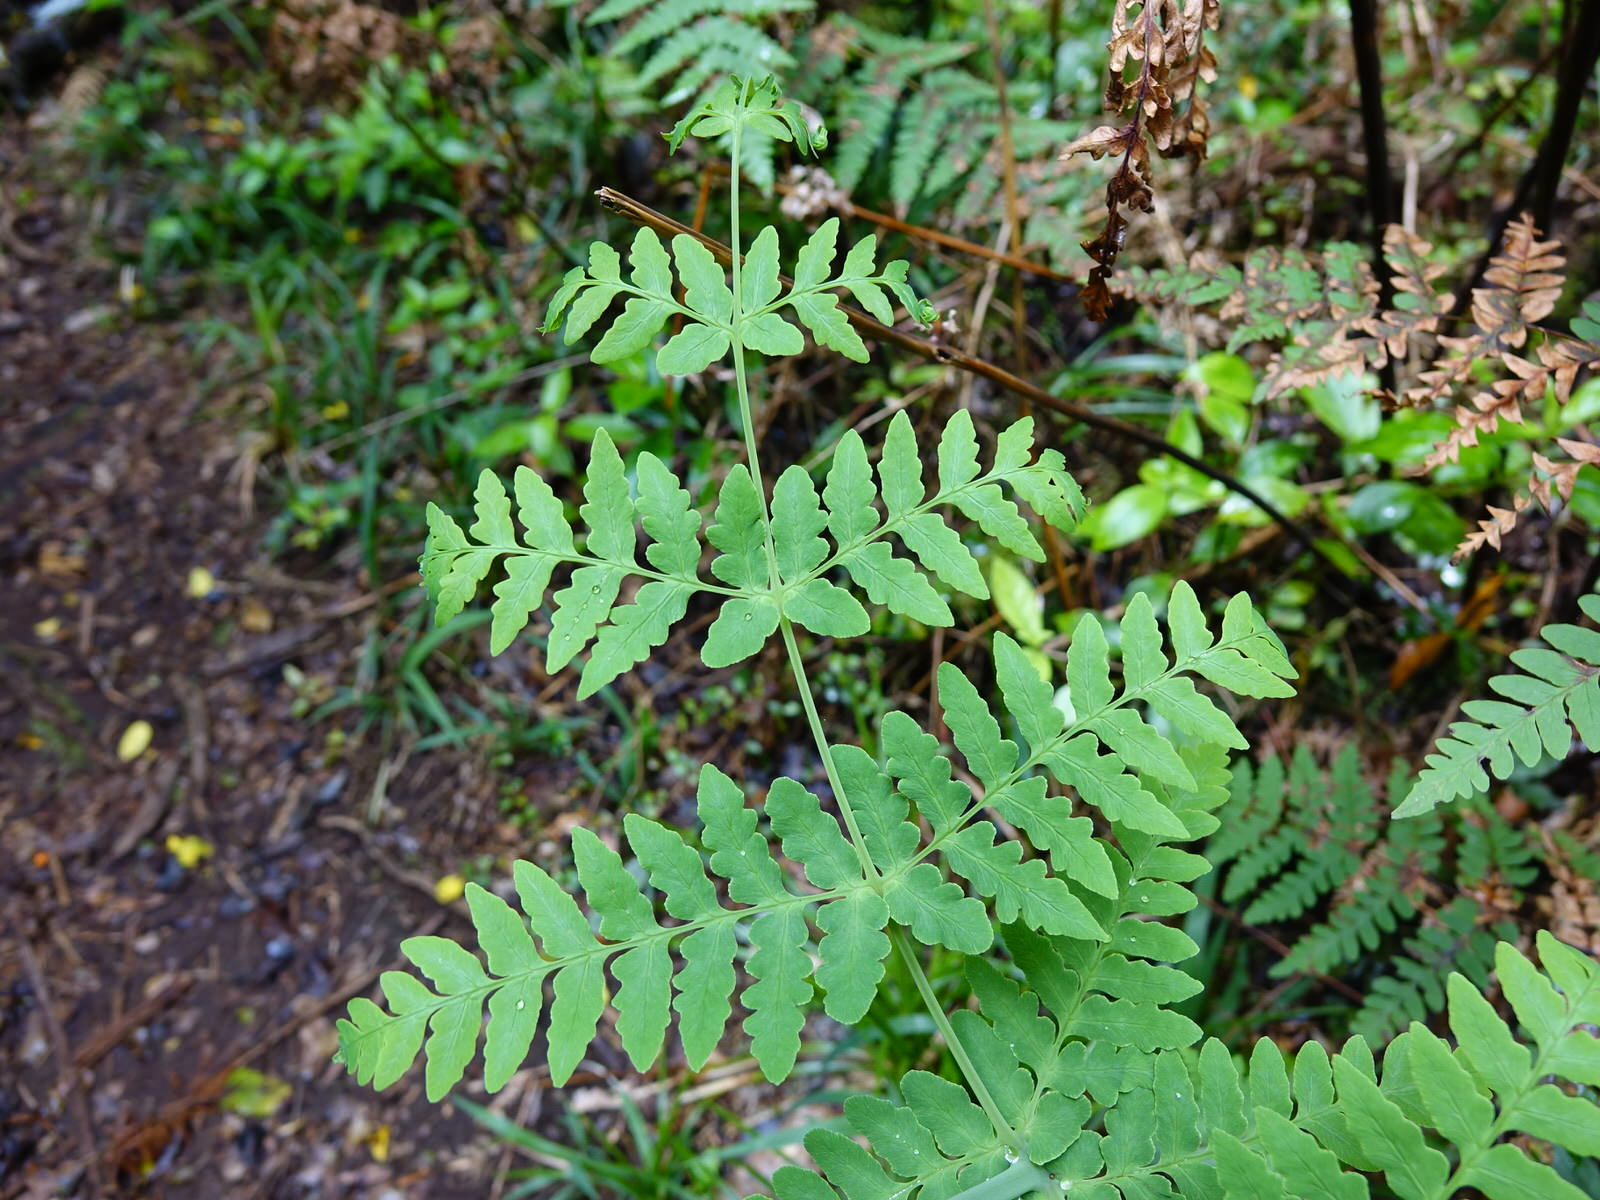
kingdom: Plantae
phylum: Tracheophyta
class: Polypodiopsida
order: Polypodiales
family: Dennstaedtiaceae
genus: Histiopteris
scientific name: Histiopteris incisa
